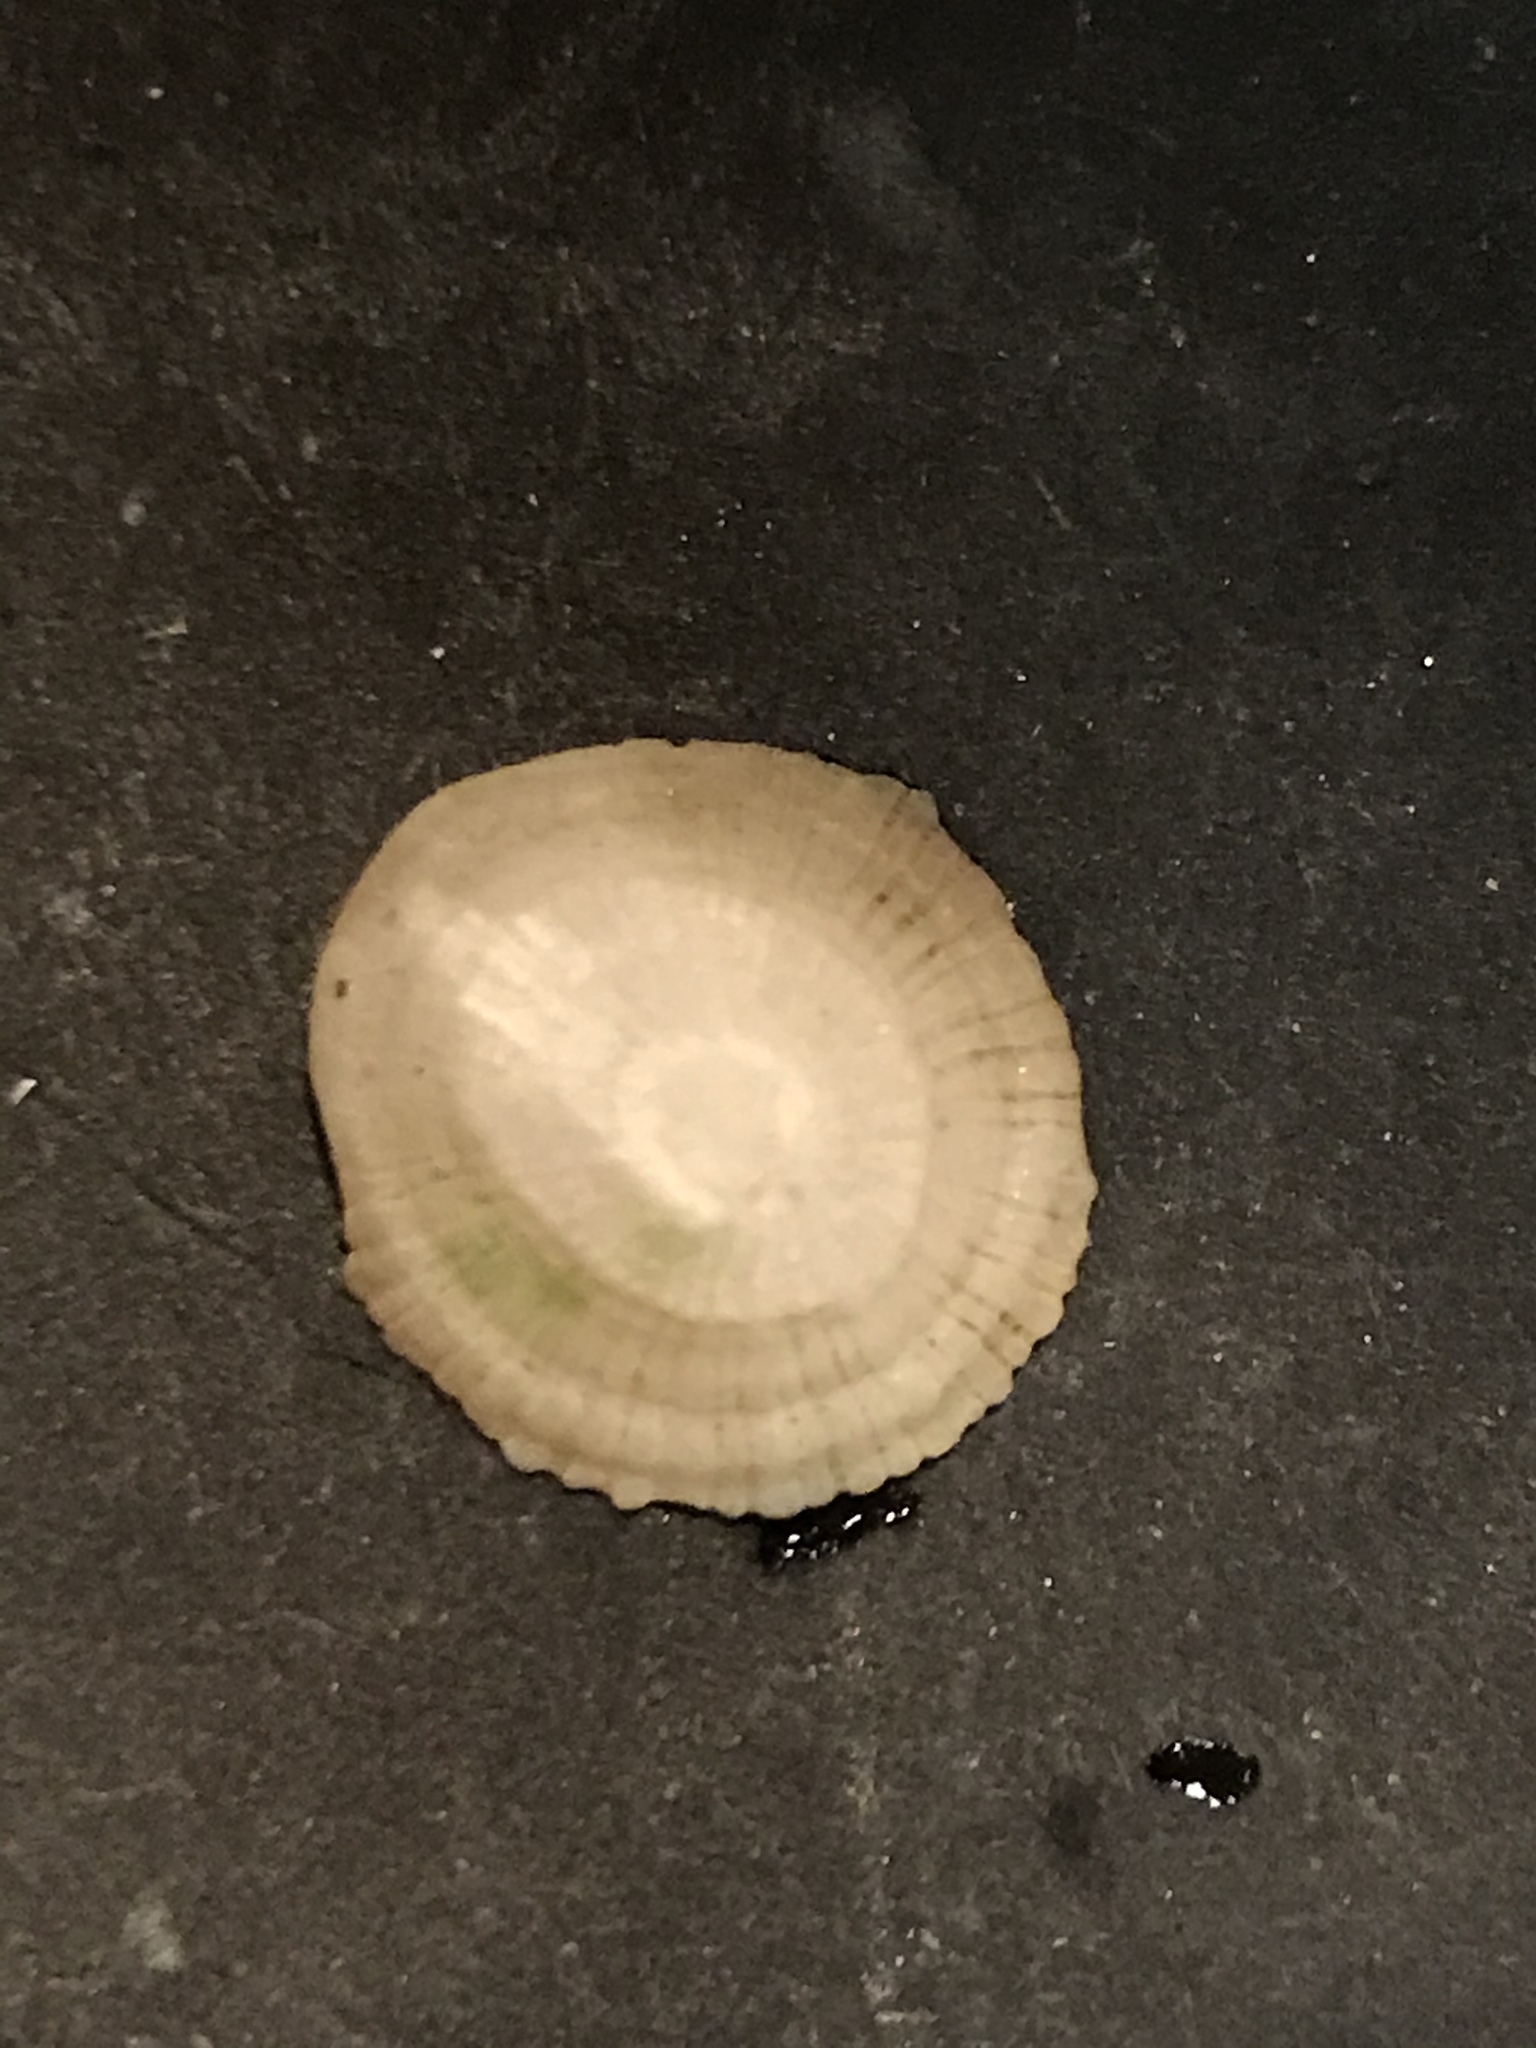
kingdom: Animalia
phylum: Mollusca
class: Gastropoda
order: Ellobiida
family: Trimusculidae
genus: Trimusculus
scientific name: Trimusculus reticulatus
